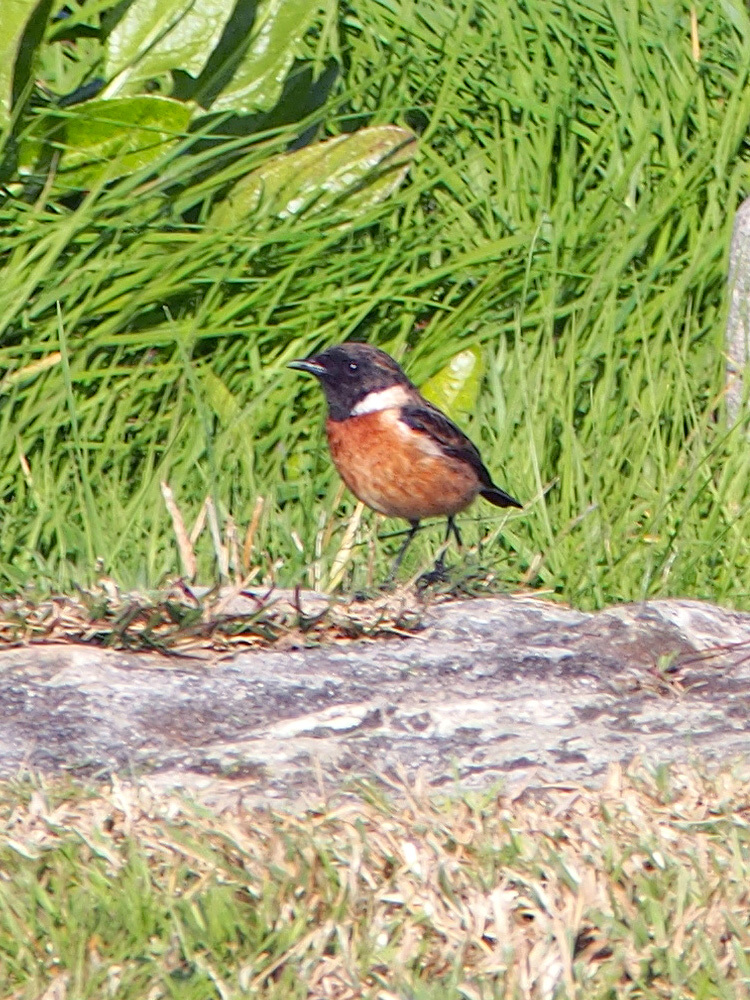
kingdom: Animalia
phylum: Chordata
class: Aves
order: Passeriformes
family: Muscicapidae
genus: Saxicola
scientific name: Saxicola rubicola
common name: European stonechat
